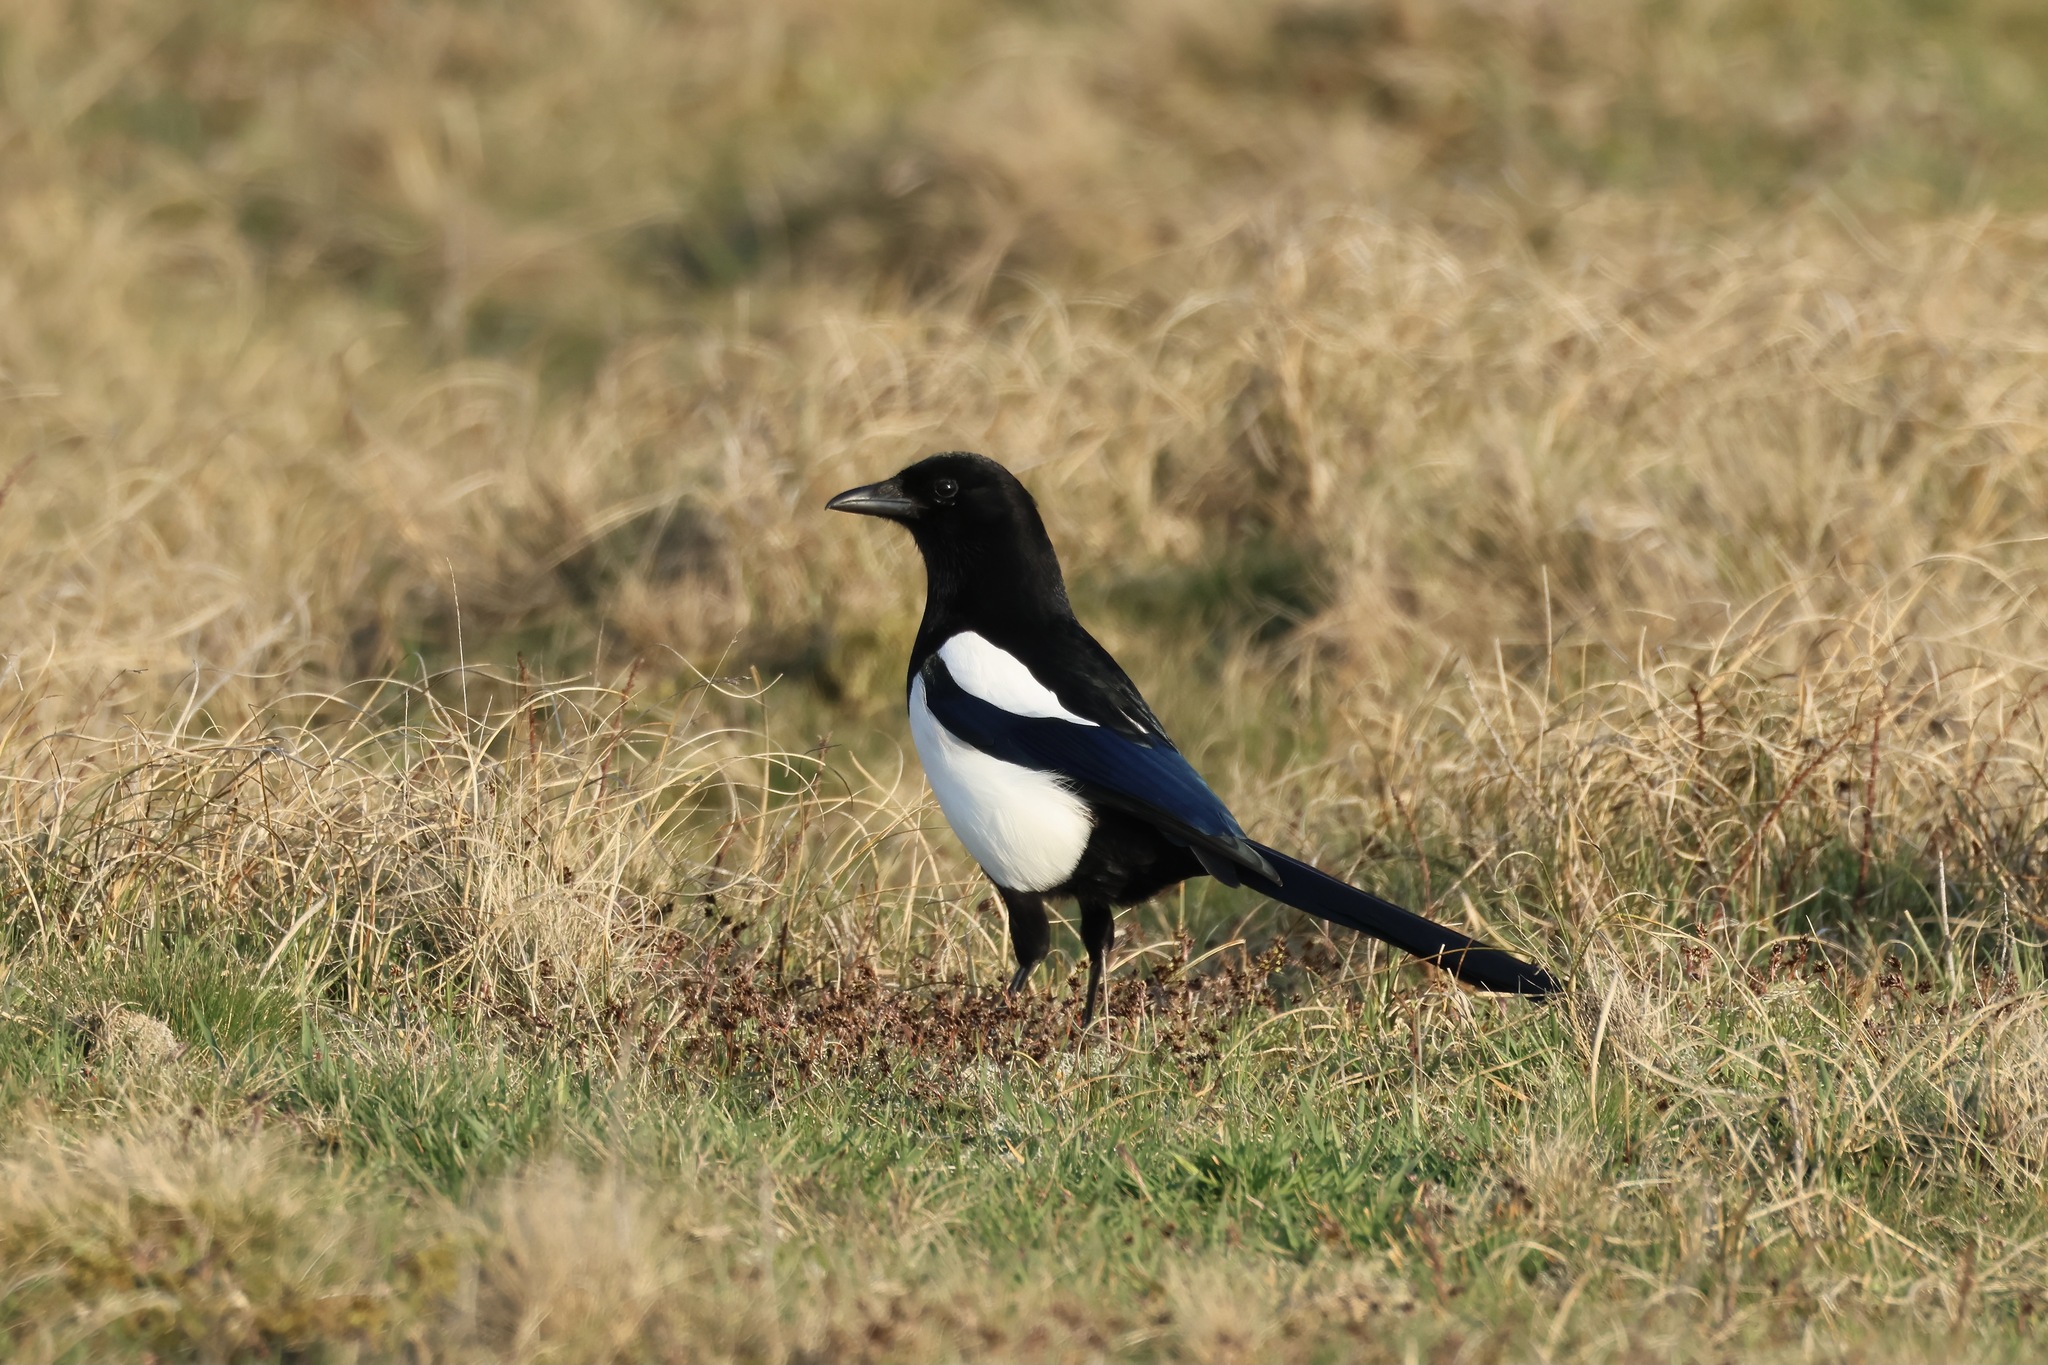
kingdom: Animalia
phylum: Chordata
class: Aves
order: Passeriformes
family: Corvidae
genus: Pica
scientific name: Pica pica
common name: Eurasian magpie
